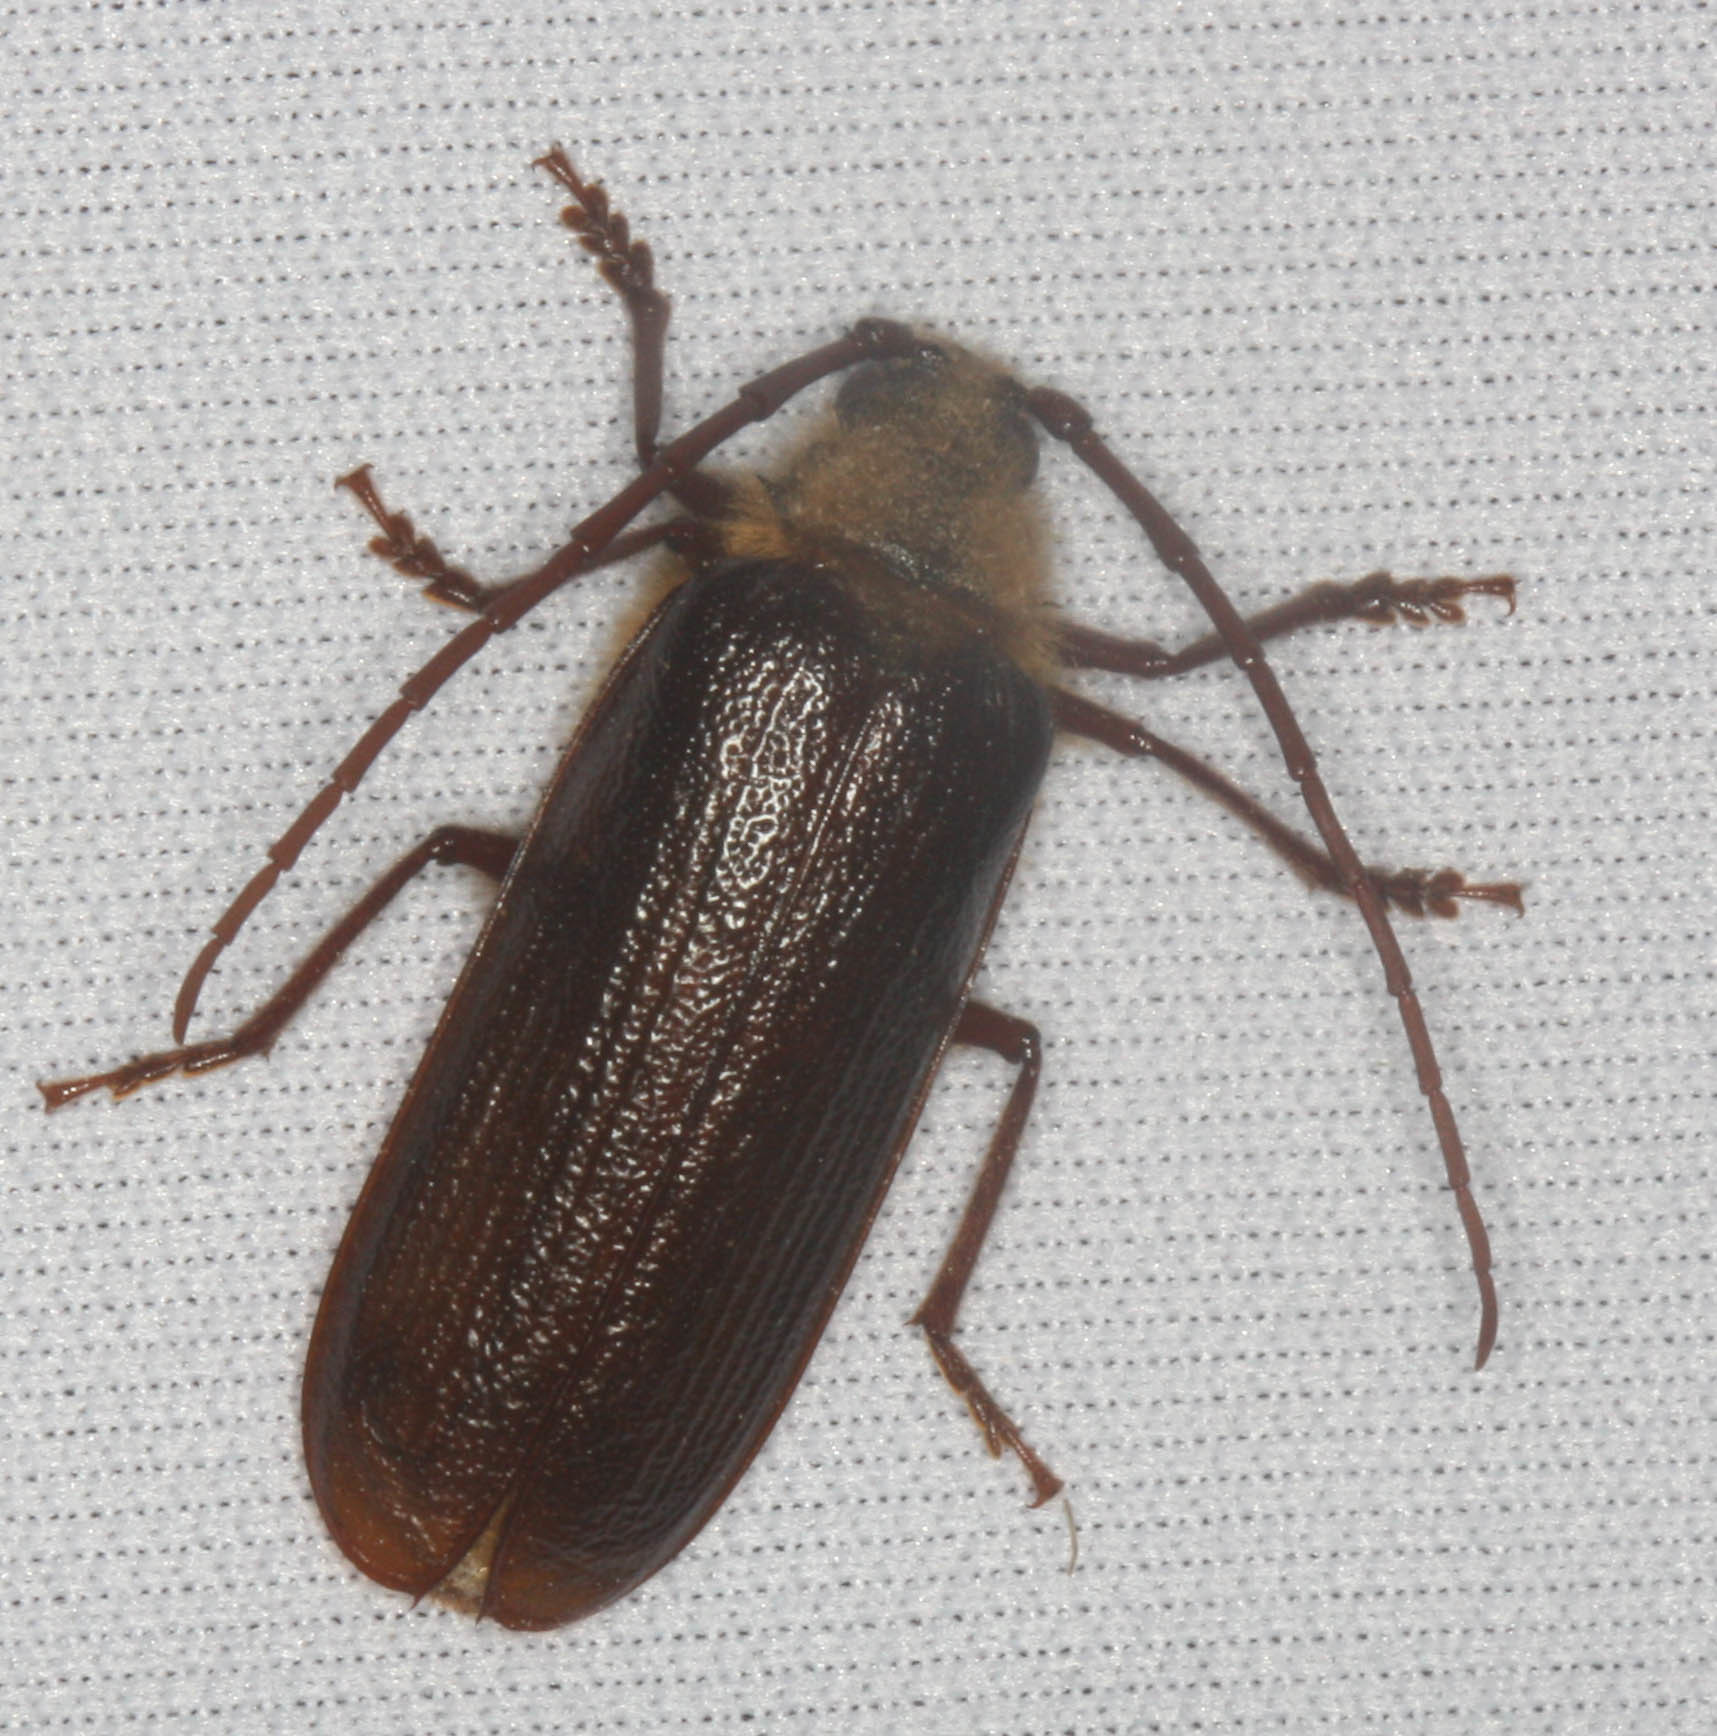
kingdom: Animalia
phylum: Arthropoda
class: Insecta
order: Coleoptera
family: Cerambycidae
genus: Tragosoma
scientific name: Tragosoma harrisii
